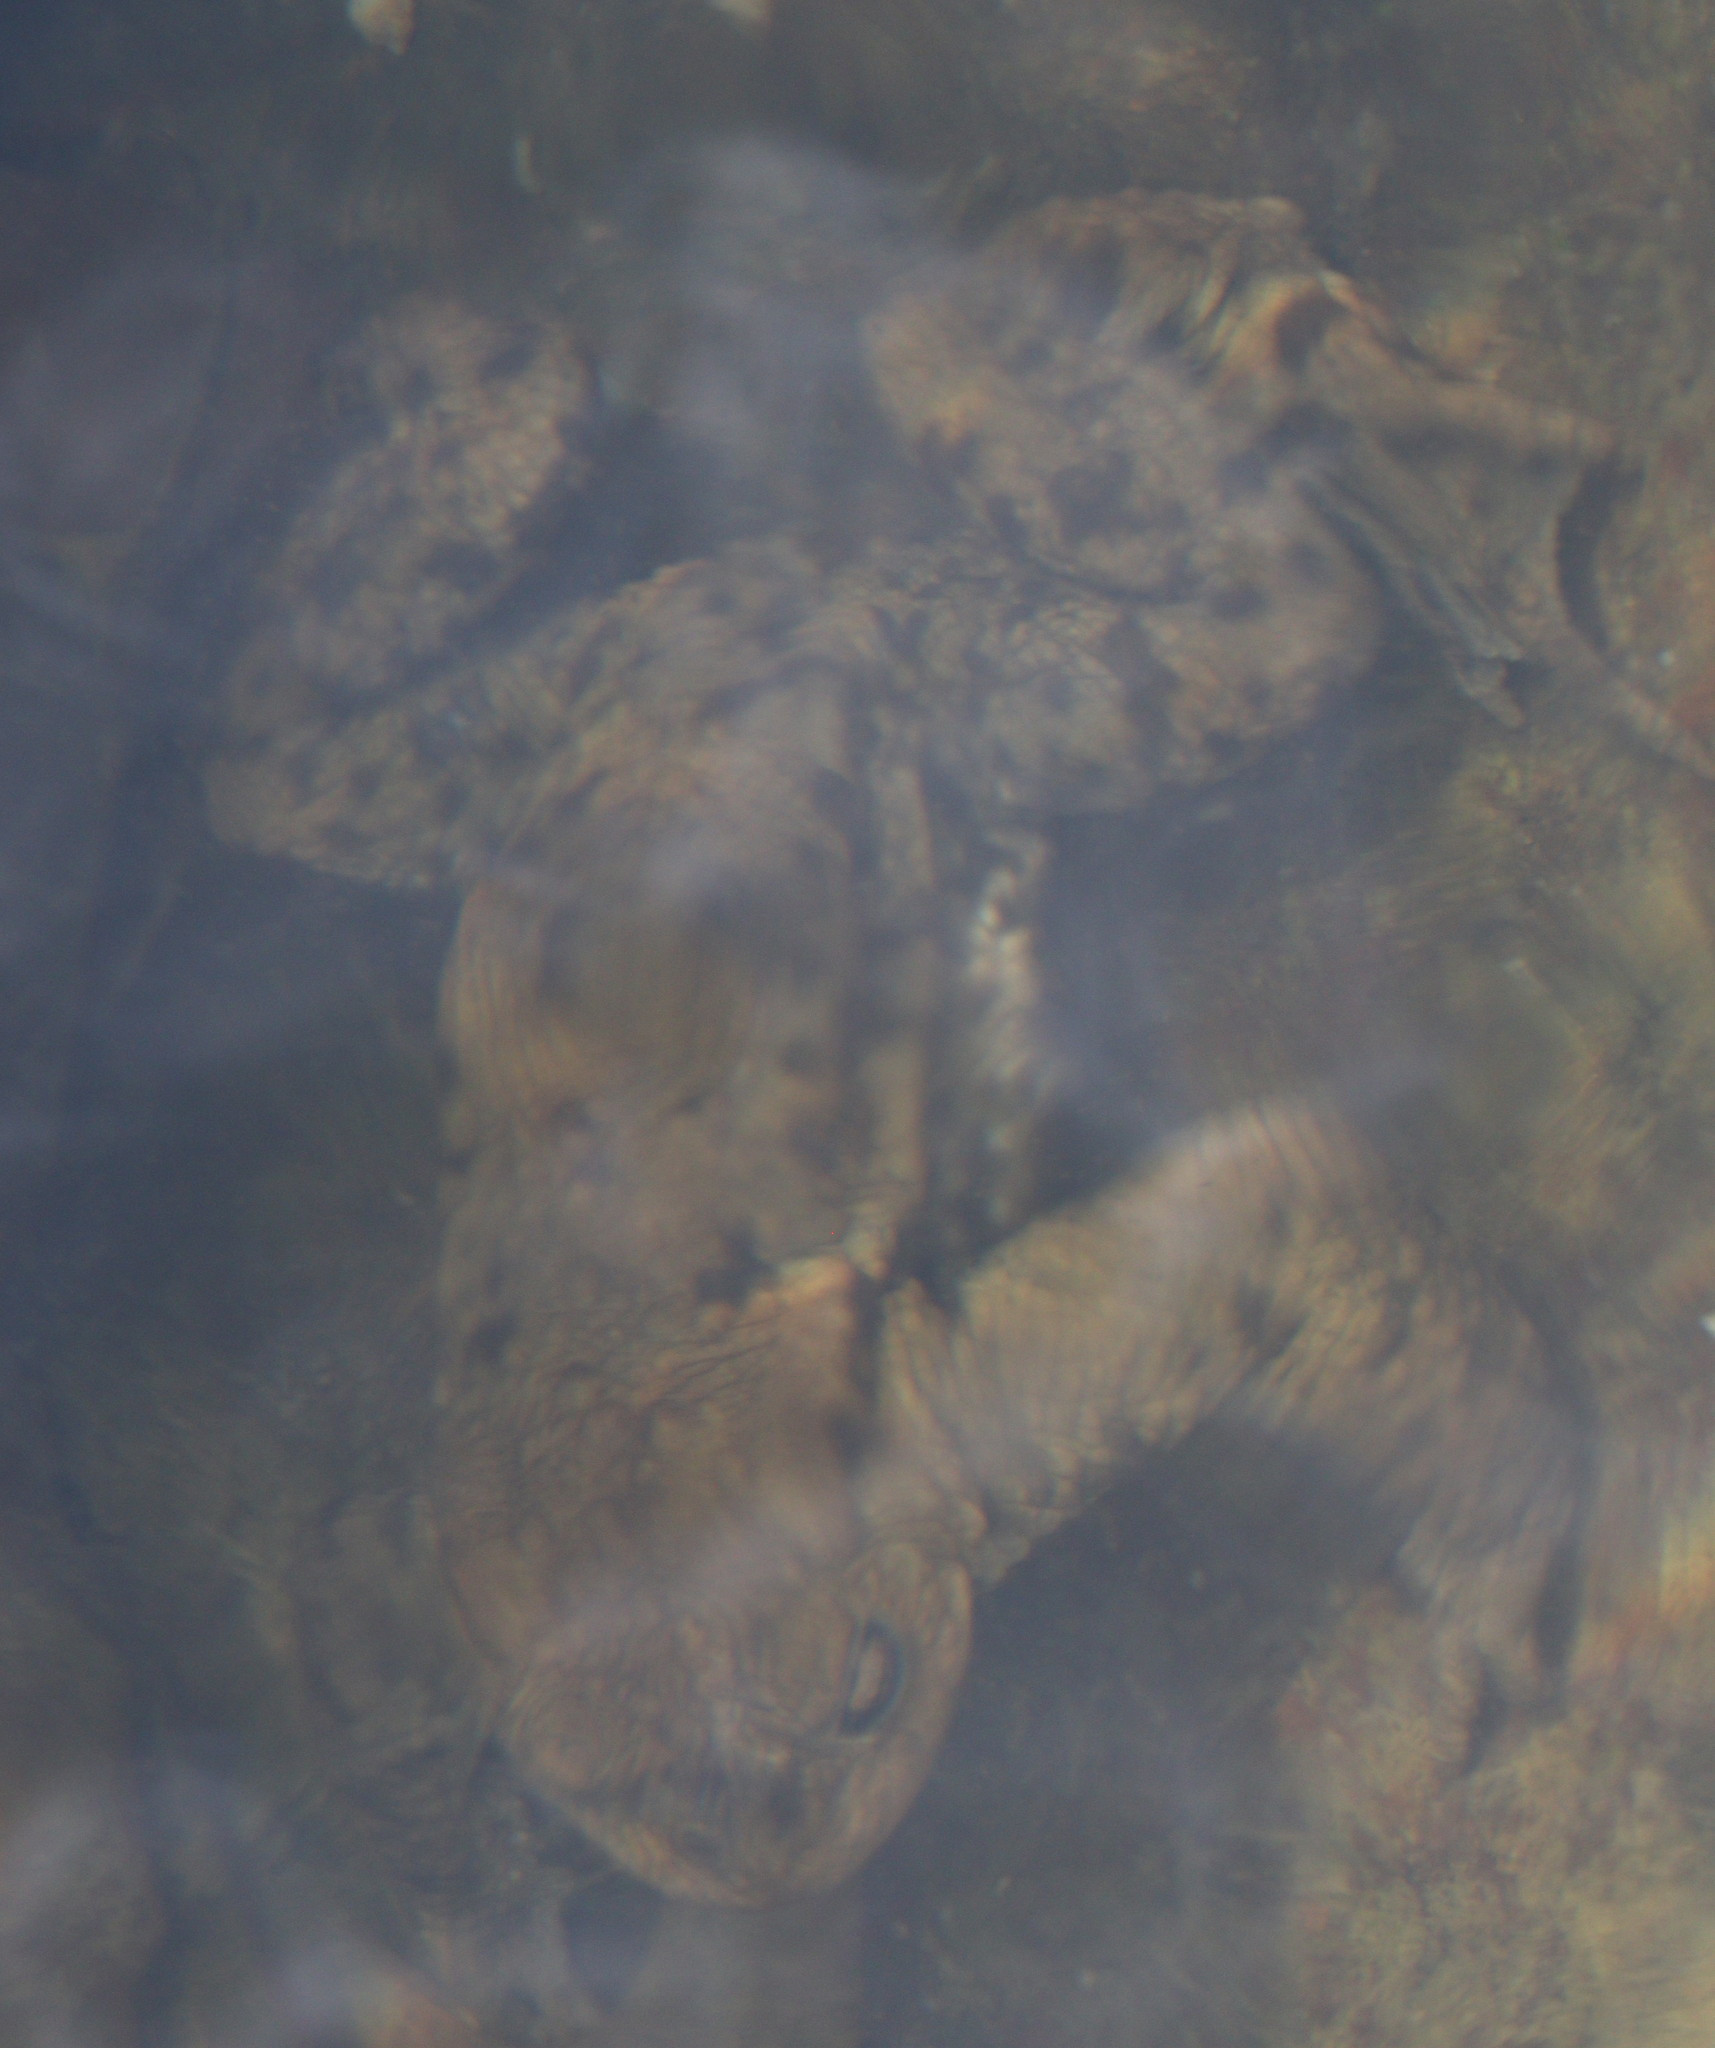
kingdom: Animalia
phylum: Chordata
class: Amphibia
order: Anura
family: Bufonidae
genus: Bufo
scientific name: Bufo bufo
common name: Common toad
